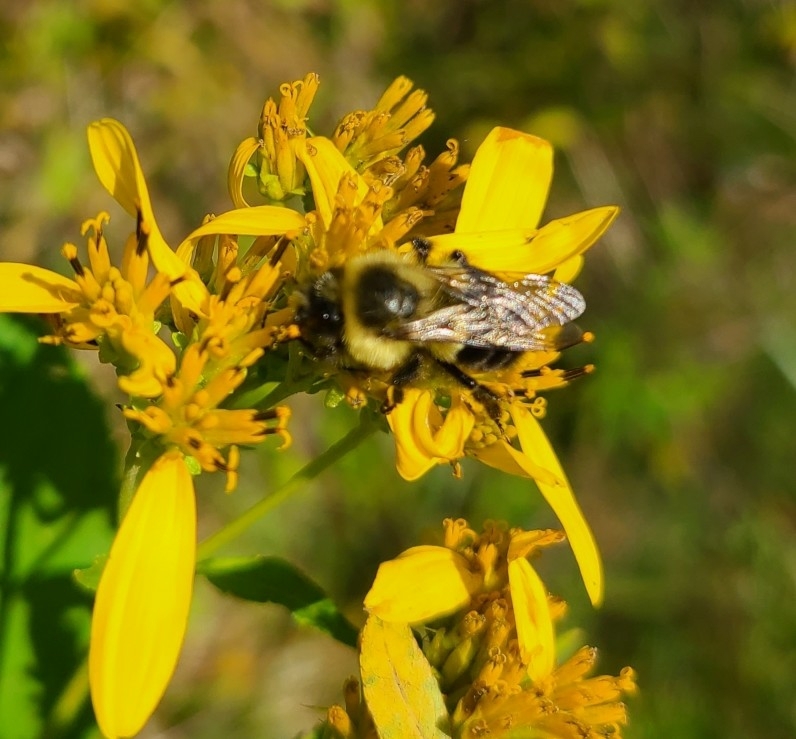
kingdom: Animalia
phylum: Arthropoda
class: Insecta
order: Hymenoptera
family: Apidae
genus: Bombus
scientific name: Bombus impatiens
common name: Common eastern bumble bee
